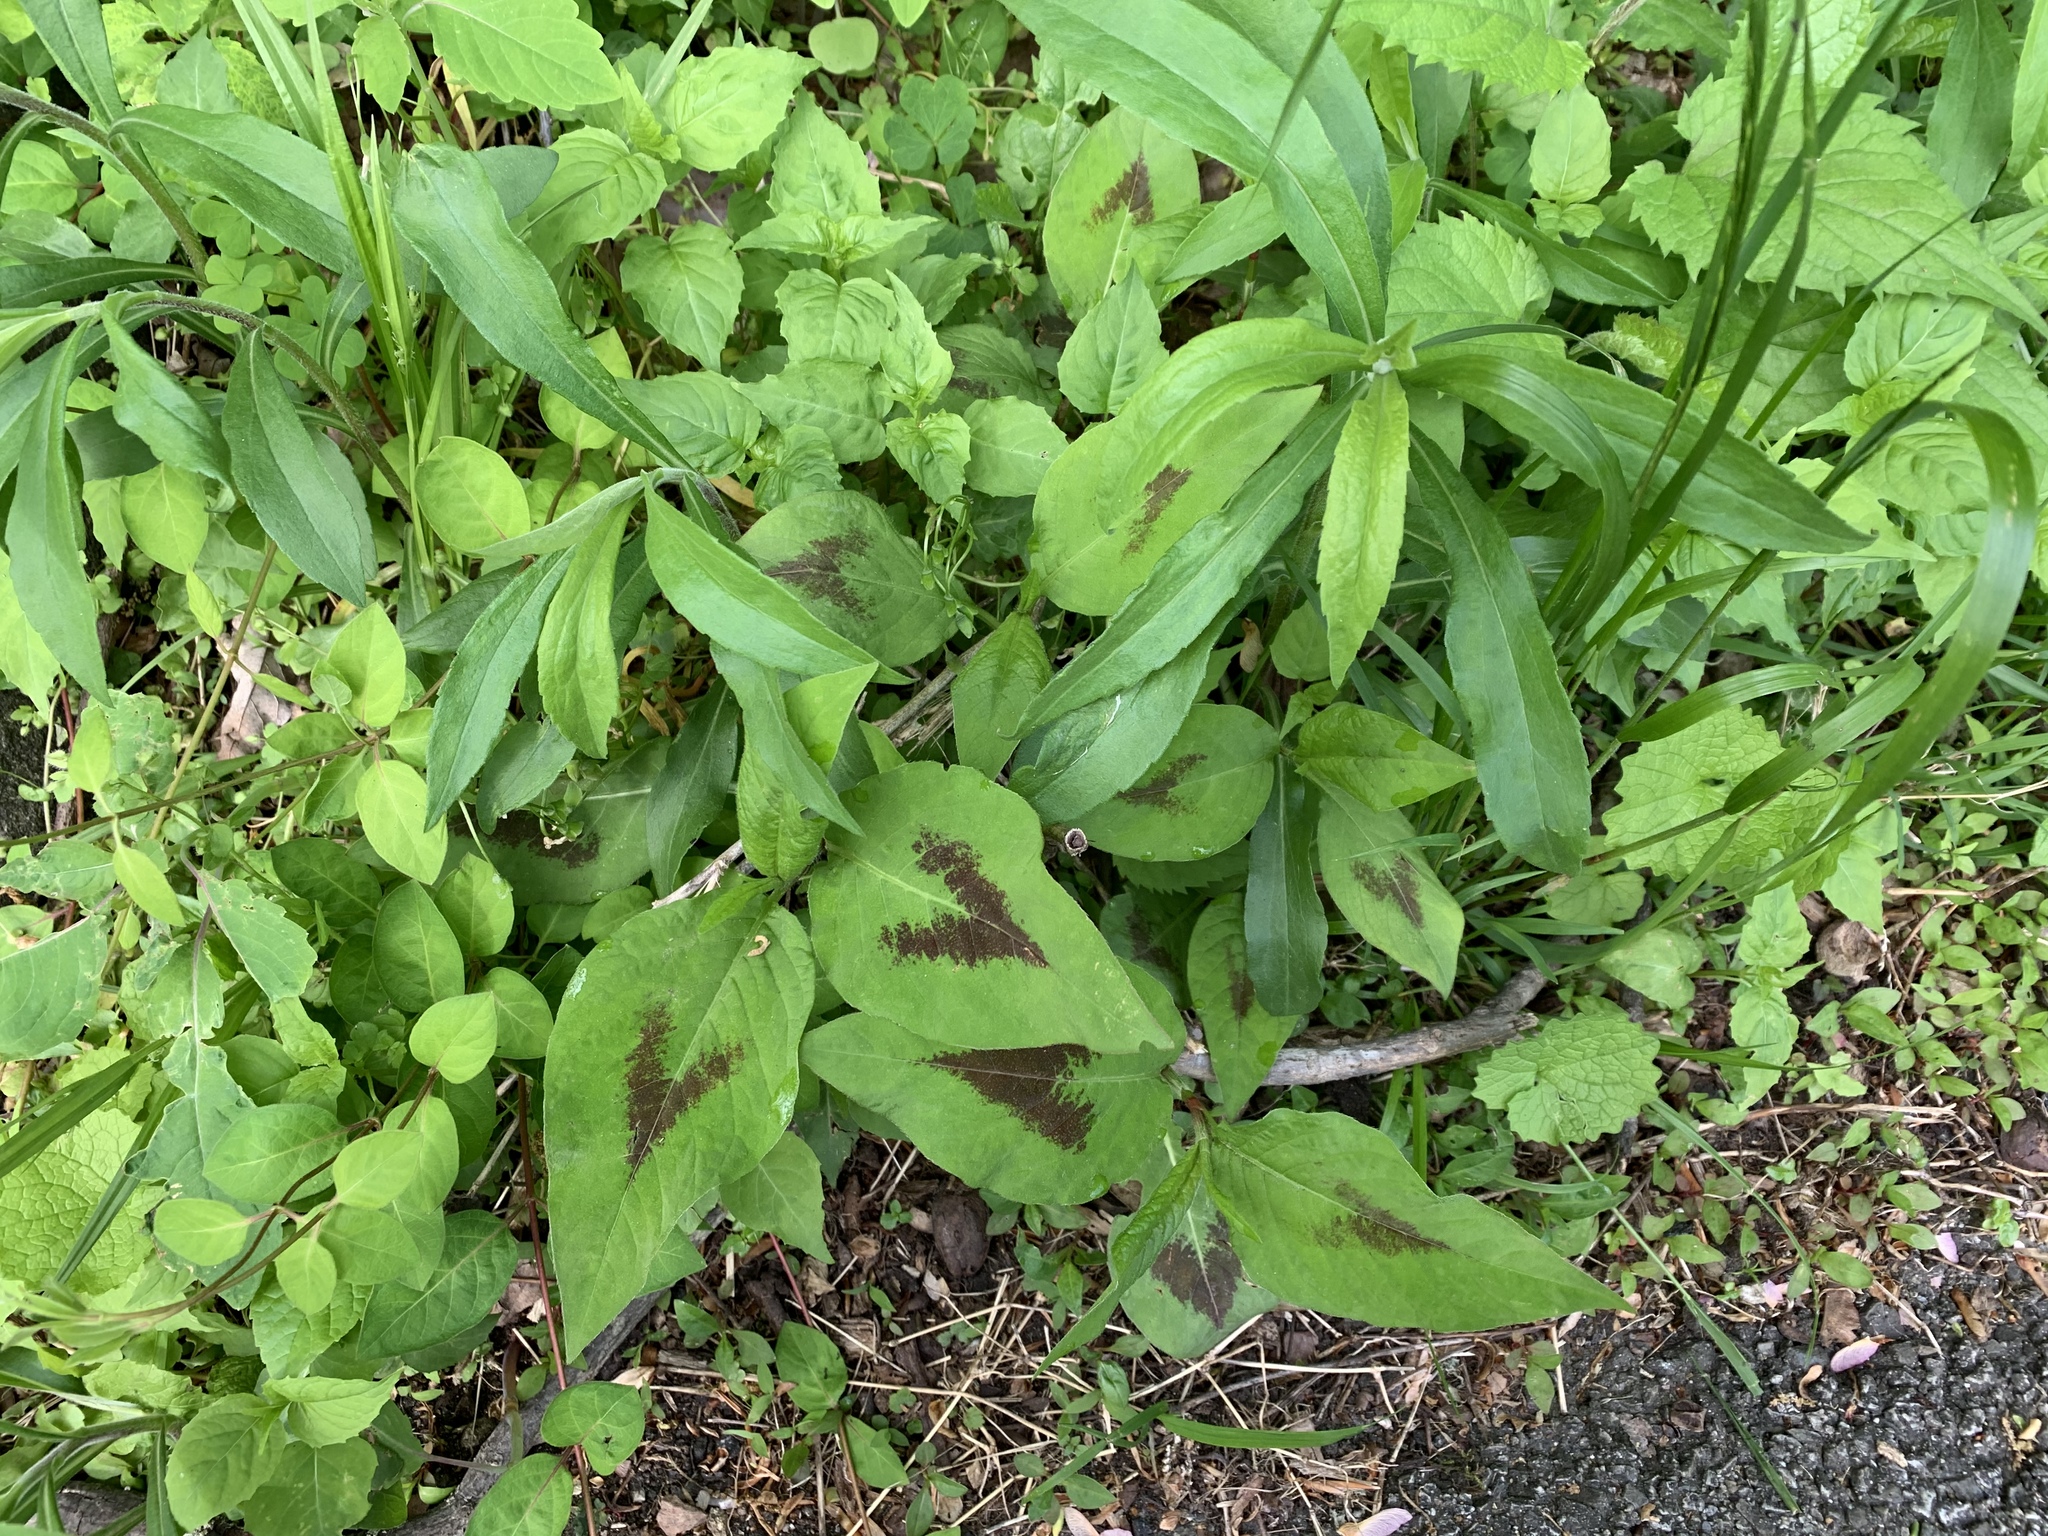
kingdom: Plantae
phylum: Tracheophyta
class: Magnoliopsida
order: Caryophyllales
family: Polygonaceae
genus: Persicaria
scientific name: Persicaria virginiana
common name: Jumpseed
